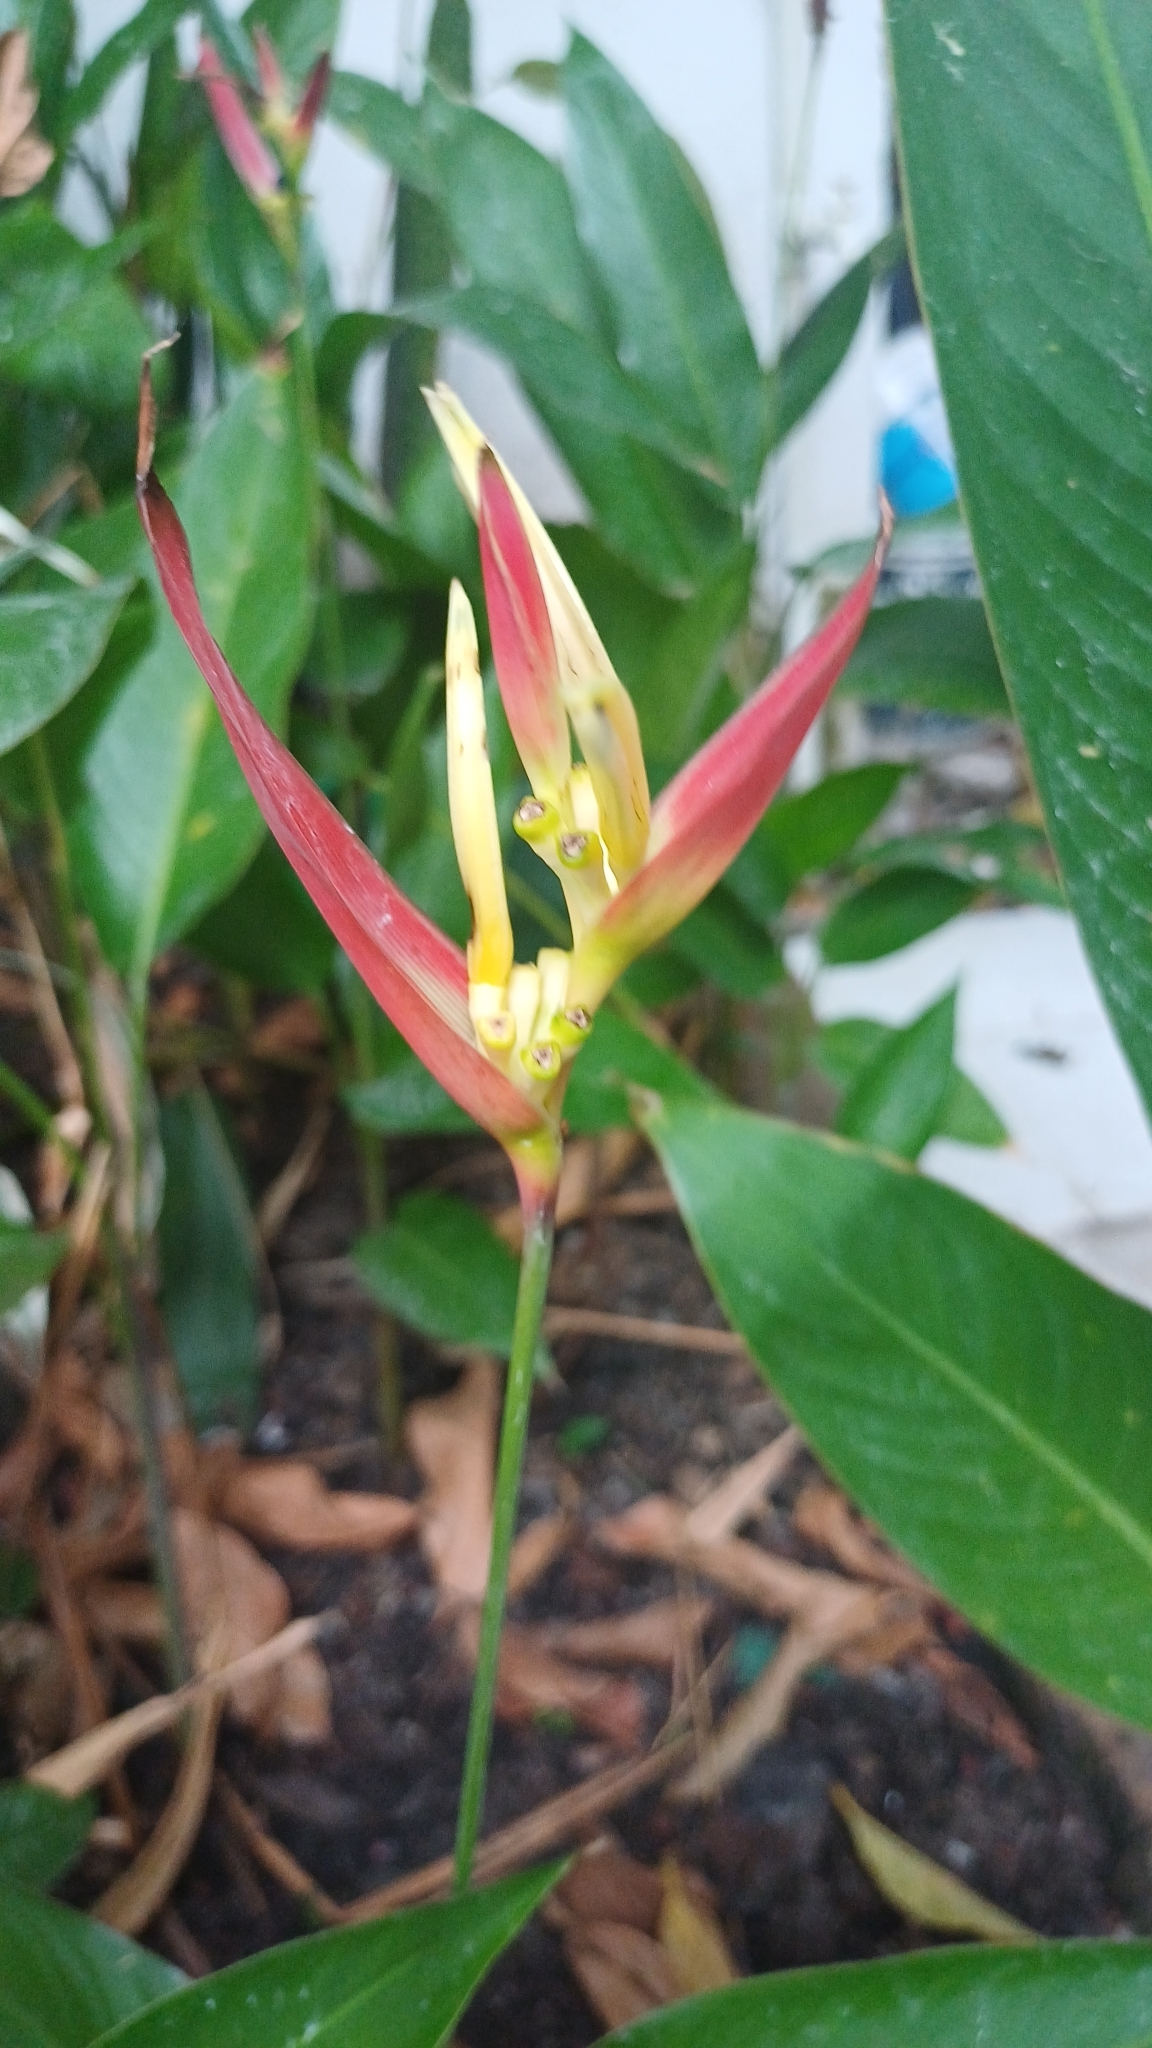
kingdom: Plantae
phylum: Tracheophyta
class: Liliopsida
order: Zingiberales
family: Heliconiaceae
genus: Heliconia
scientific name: Heliconia psittacorum
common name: Parrot's-flower
